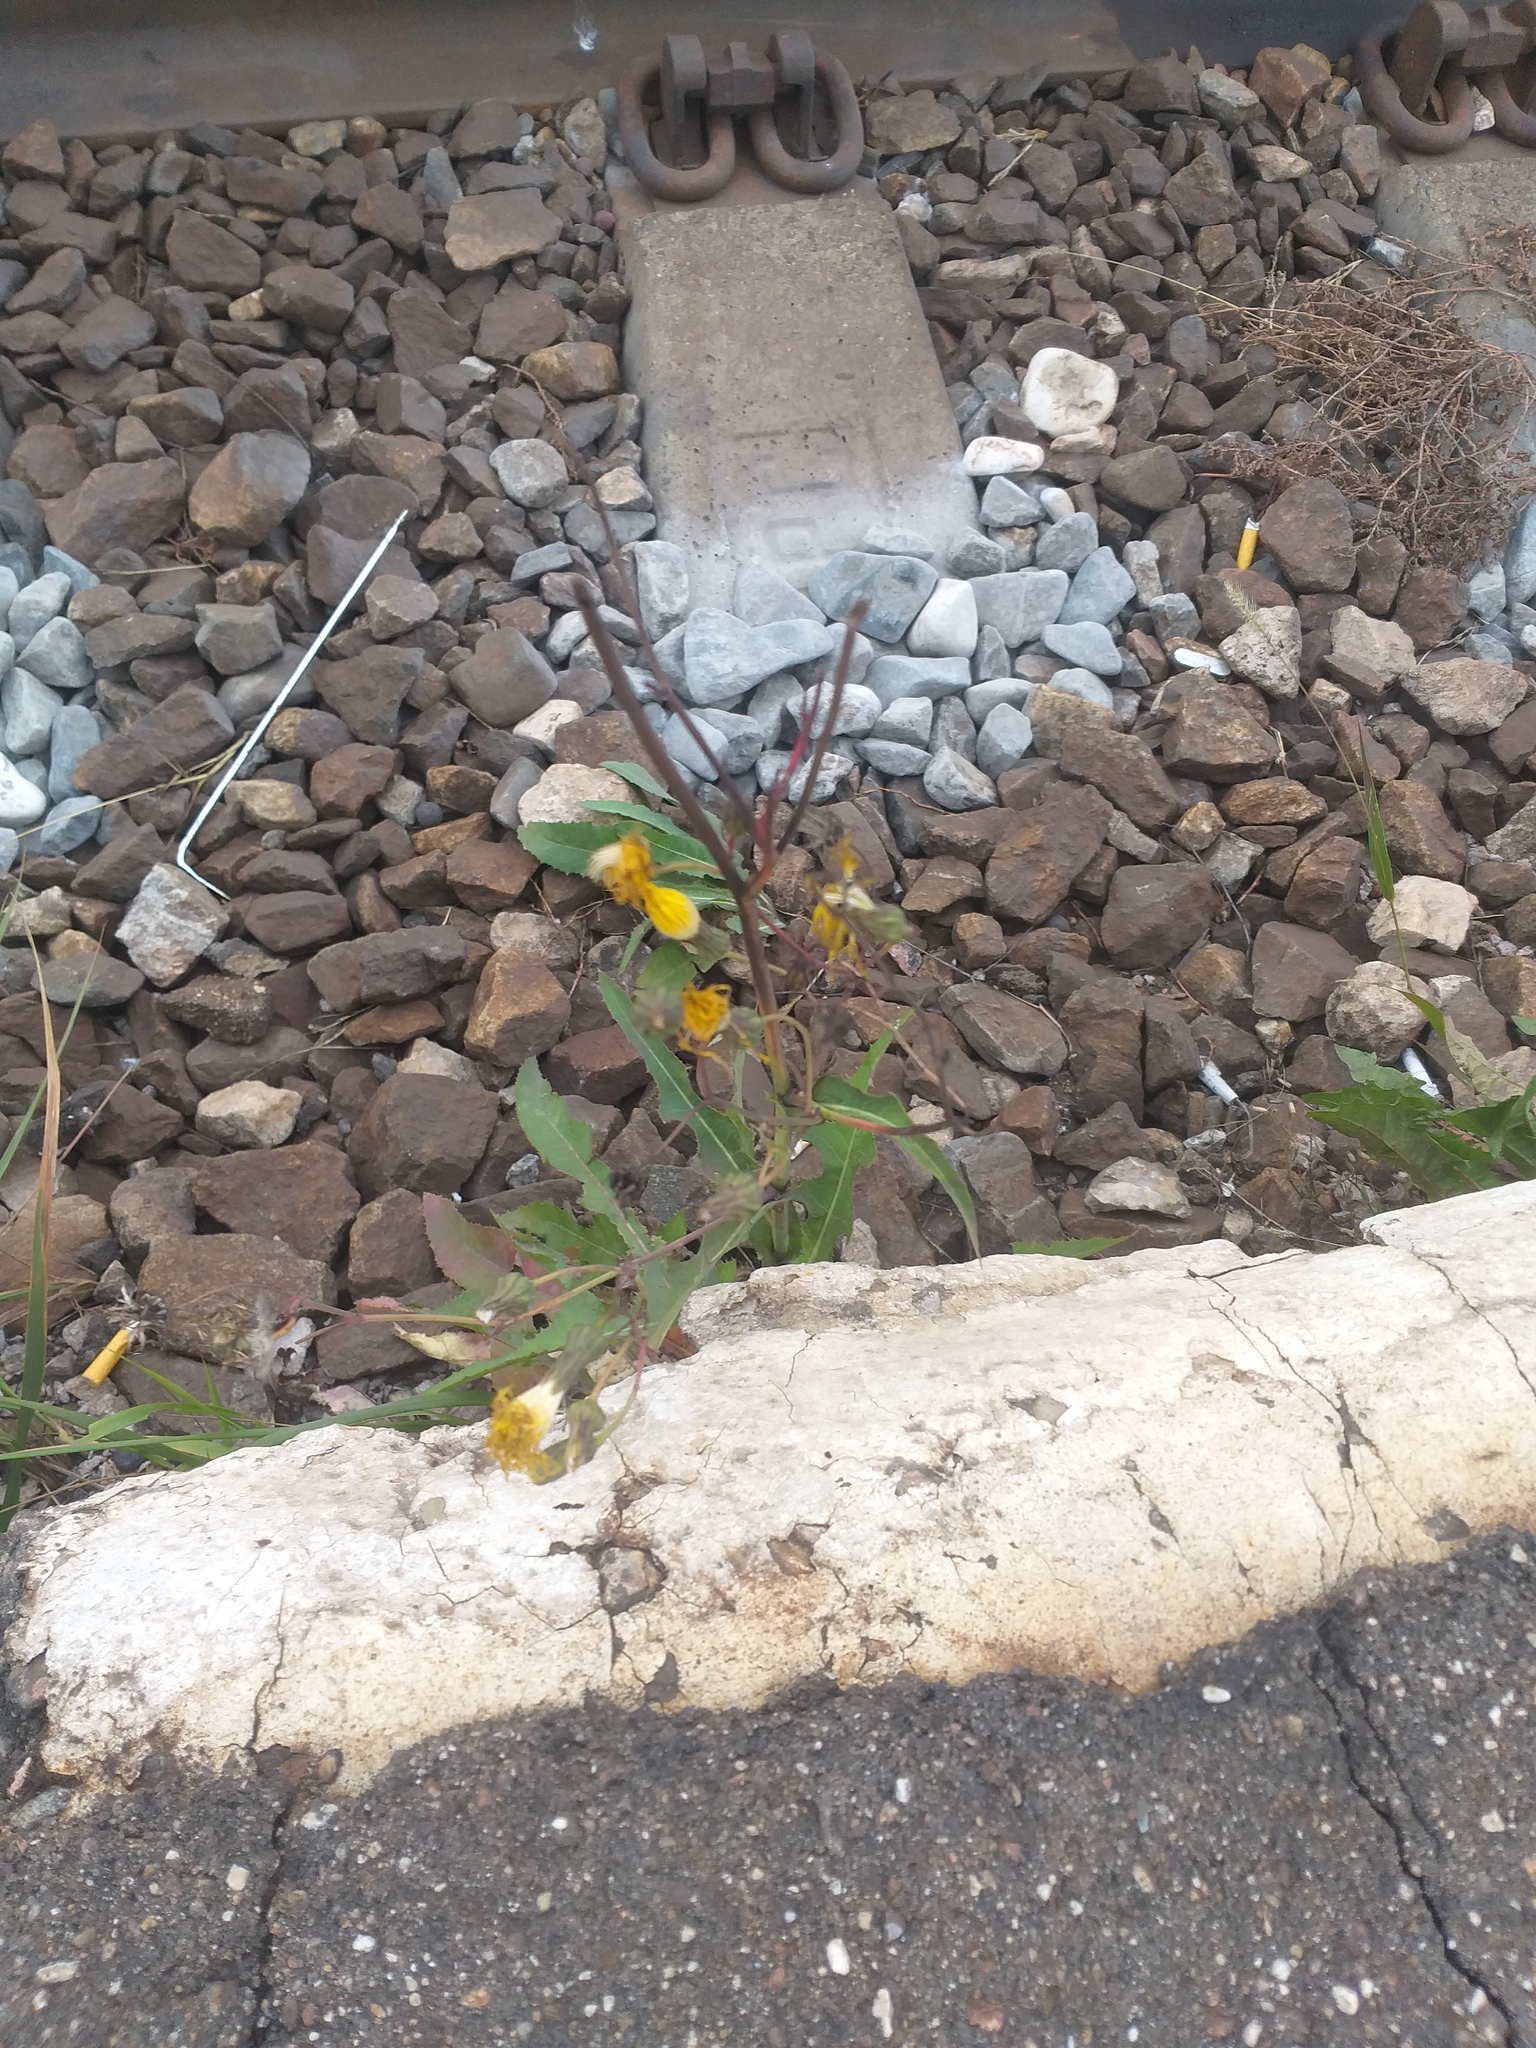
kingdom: Plantae
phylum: Tracheophyta
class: Magnoliopsida
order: Asterales
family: Asteraceae
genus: Sonchus
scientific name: Sonchus arvensis
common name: Perennial sow-thistle
